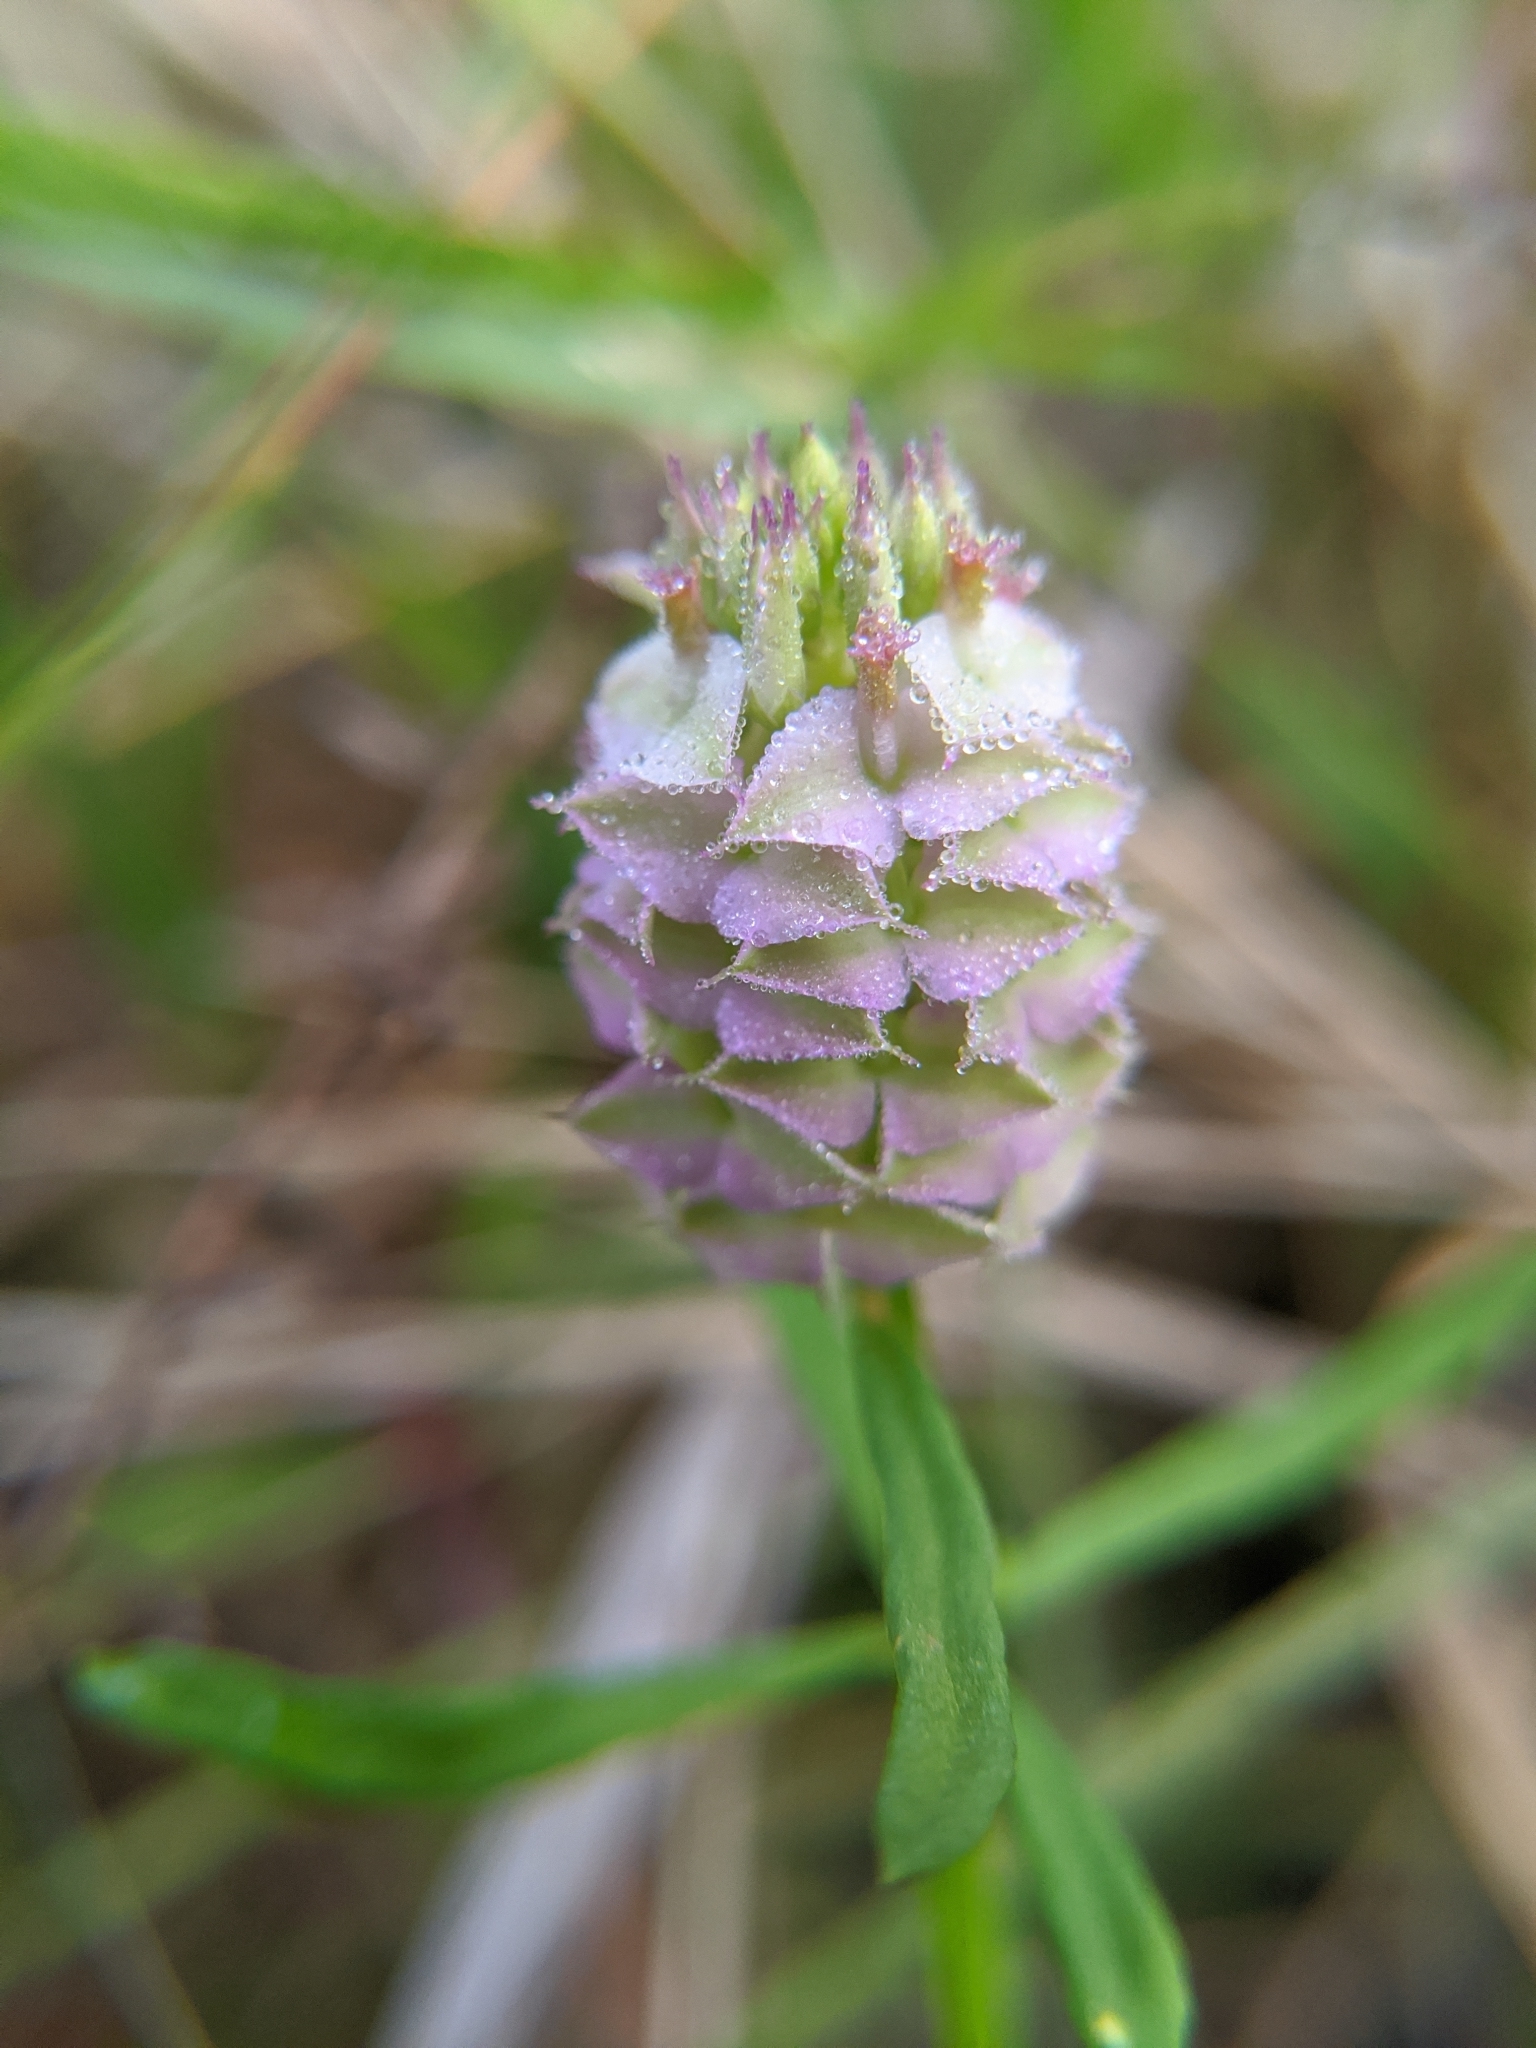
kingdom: Plantae
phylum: Tracheophyta
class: Magnoliopsida
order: Fabales
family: Polygalaceae
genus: Polygala
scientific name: Polygala cruciata
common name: Drumheads
